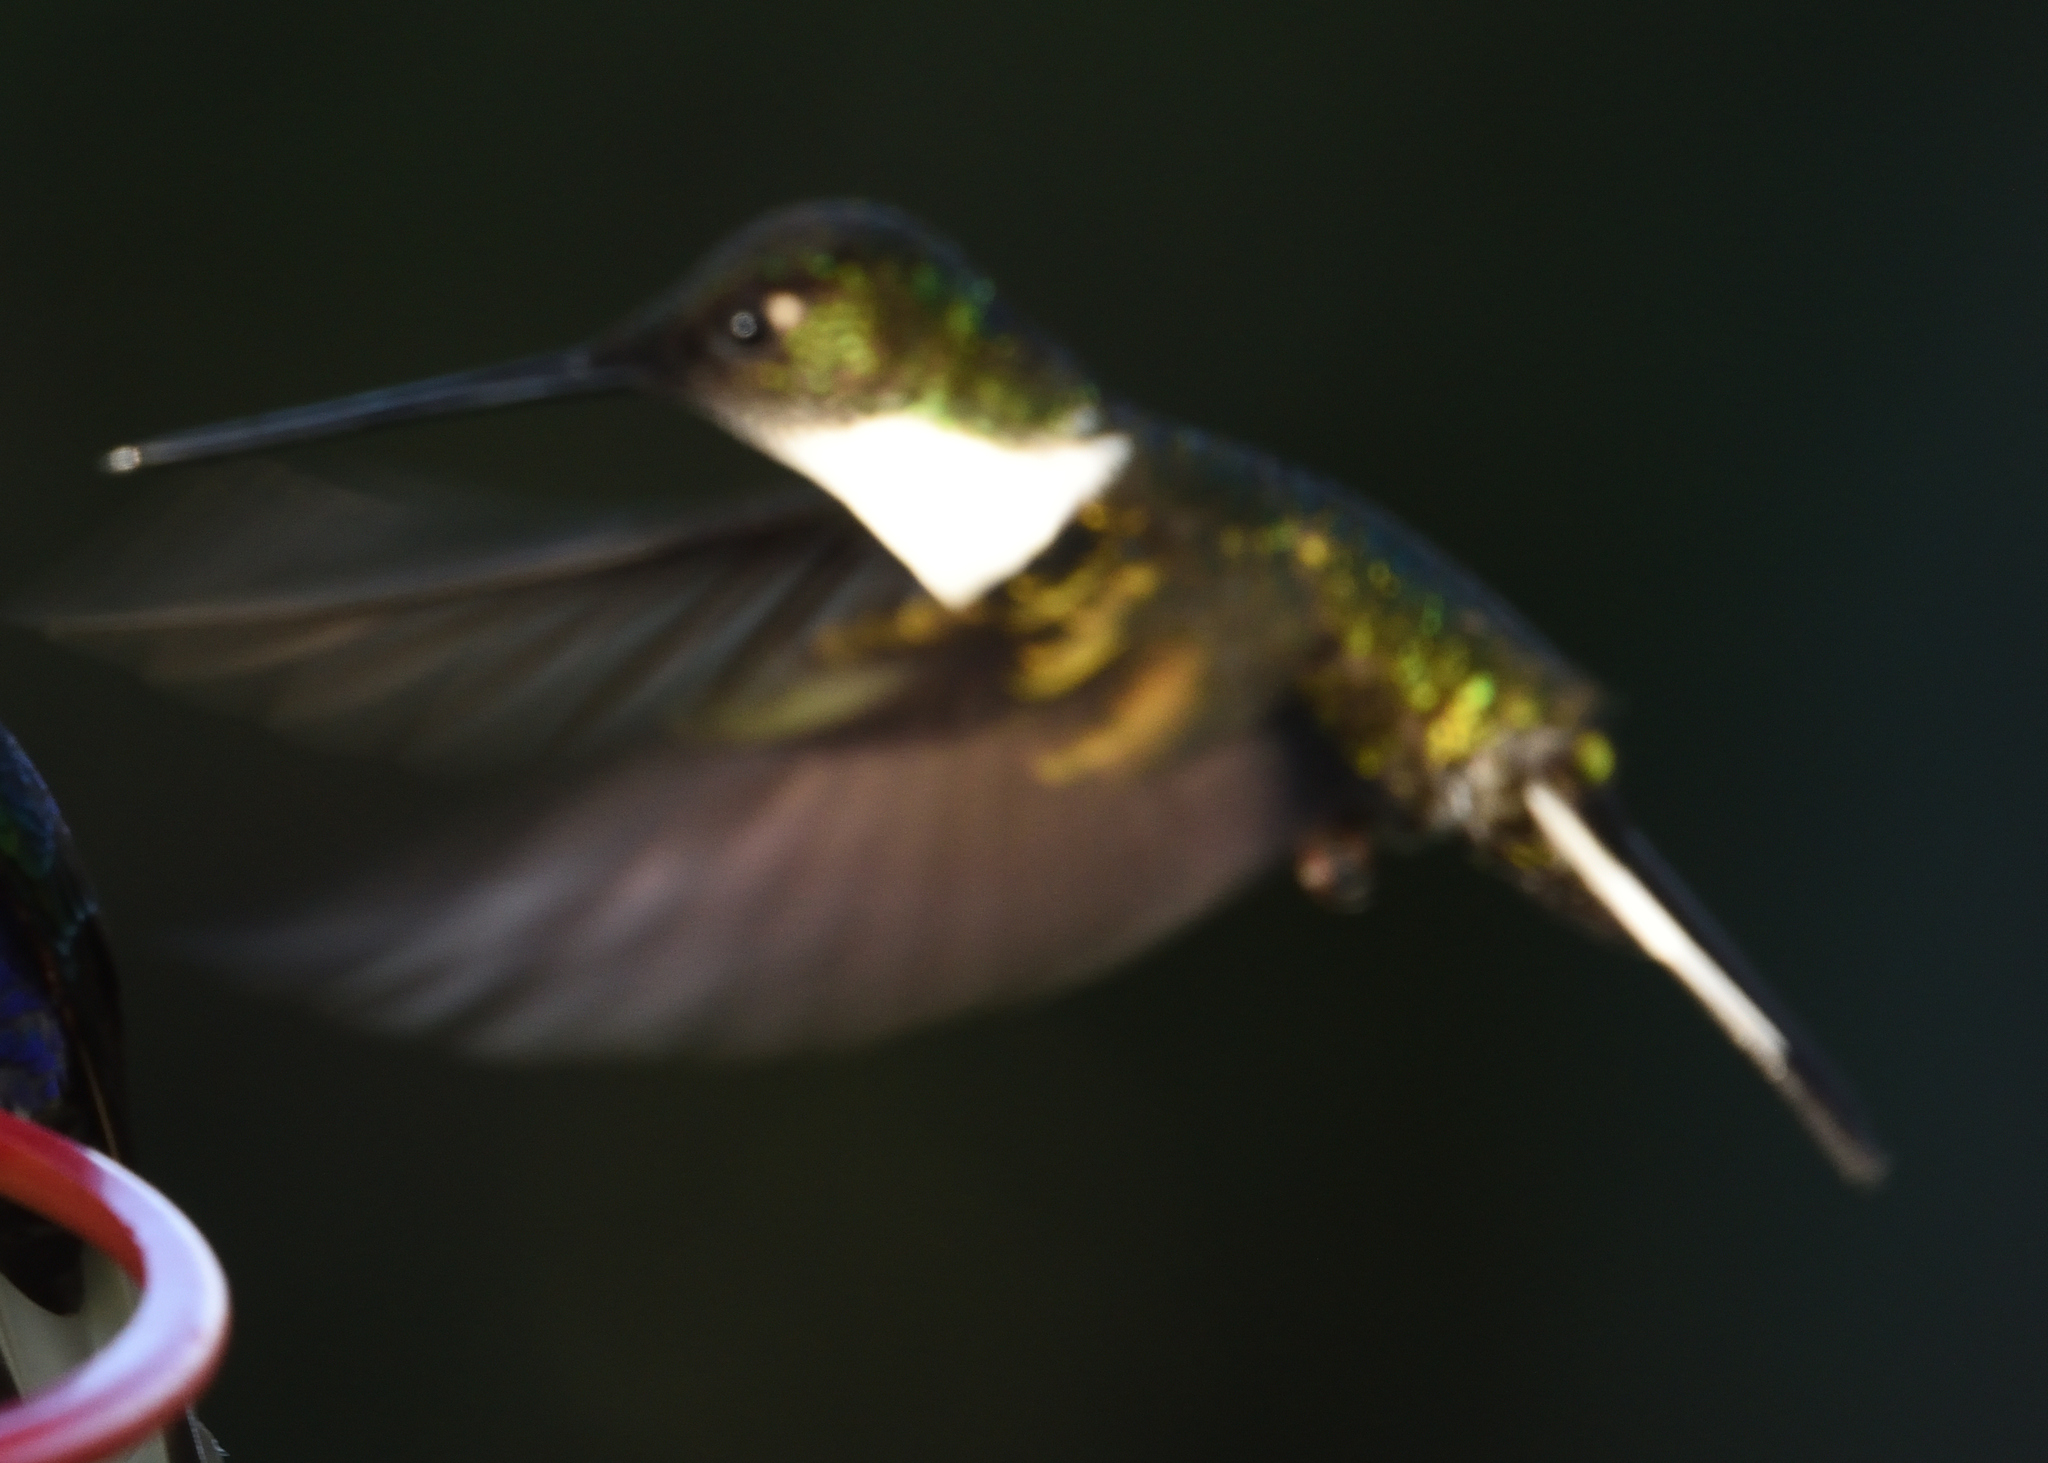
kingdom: Animalia
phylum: Chordata
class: Aves
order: Apodiformes
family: Trochilidae
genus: Coeligena
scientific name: Coeligena torquata
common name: Collared inca
